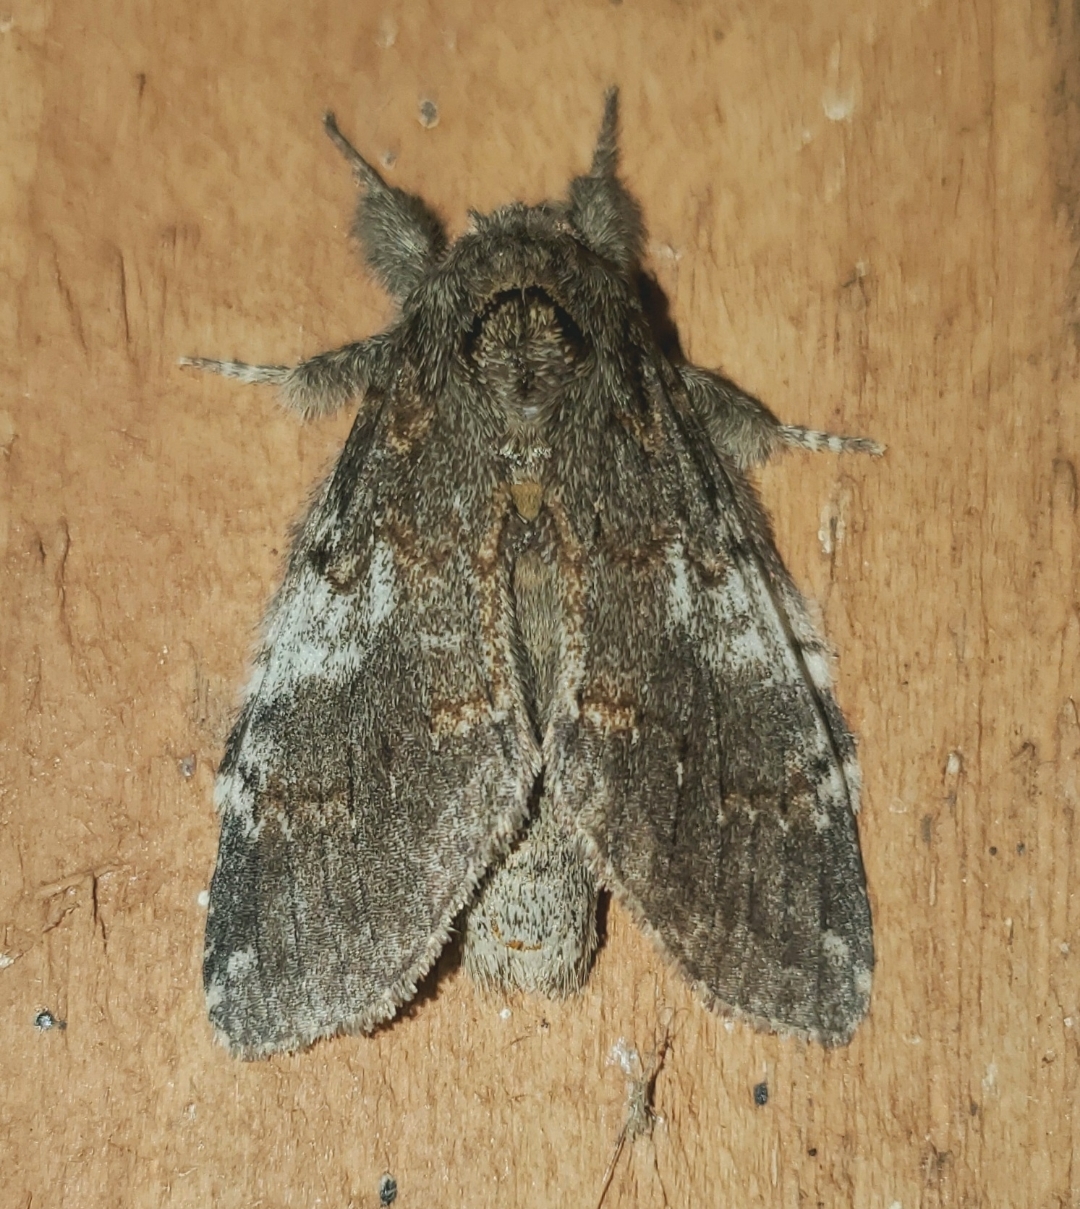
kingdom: Animalia
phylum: Arthropoda
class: Insecta
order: Lepidoptera
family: Notodontidae
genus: Peridea
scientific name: Peridea angulosa
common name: Angulose prominent
